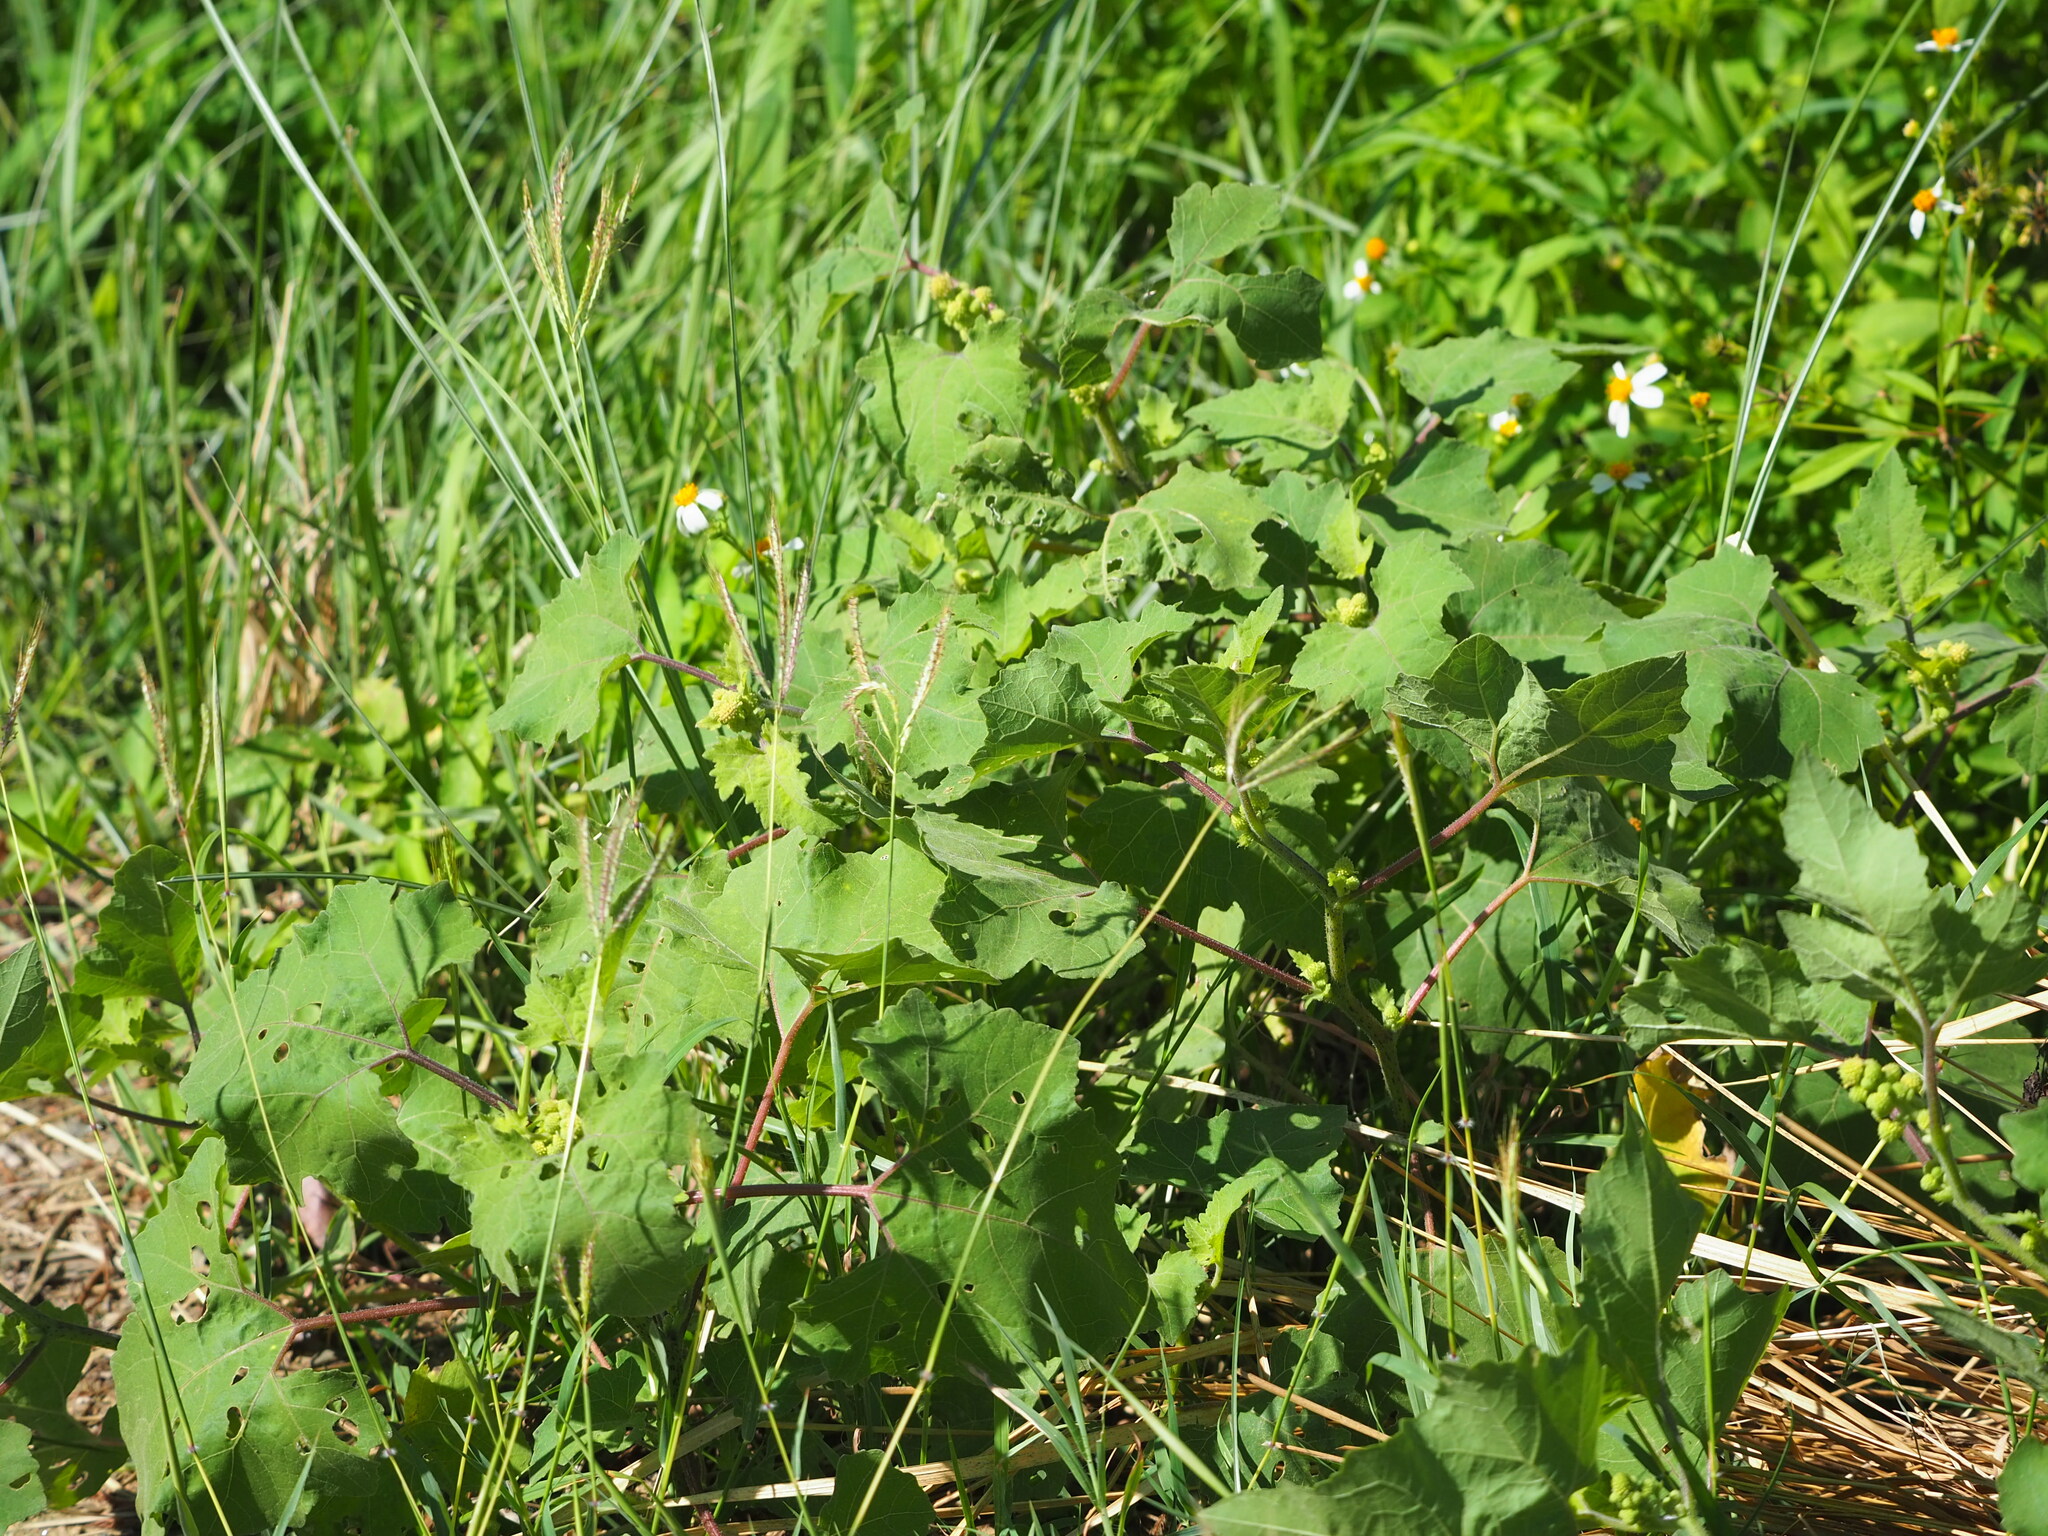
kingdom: Plantae
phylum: Tracheophyta
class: Magnoliopsida
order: Asterales
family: Asteraceae
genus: Xanthium
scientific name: Xanthium strumarium
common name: Rough cocklebur
